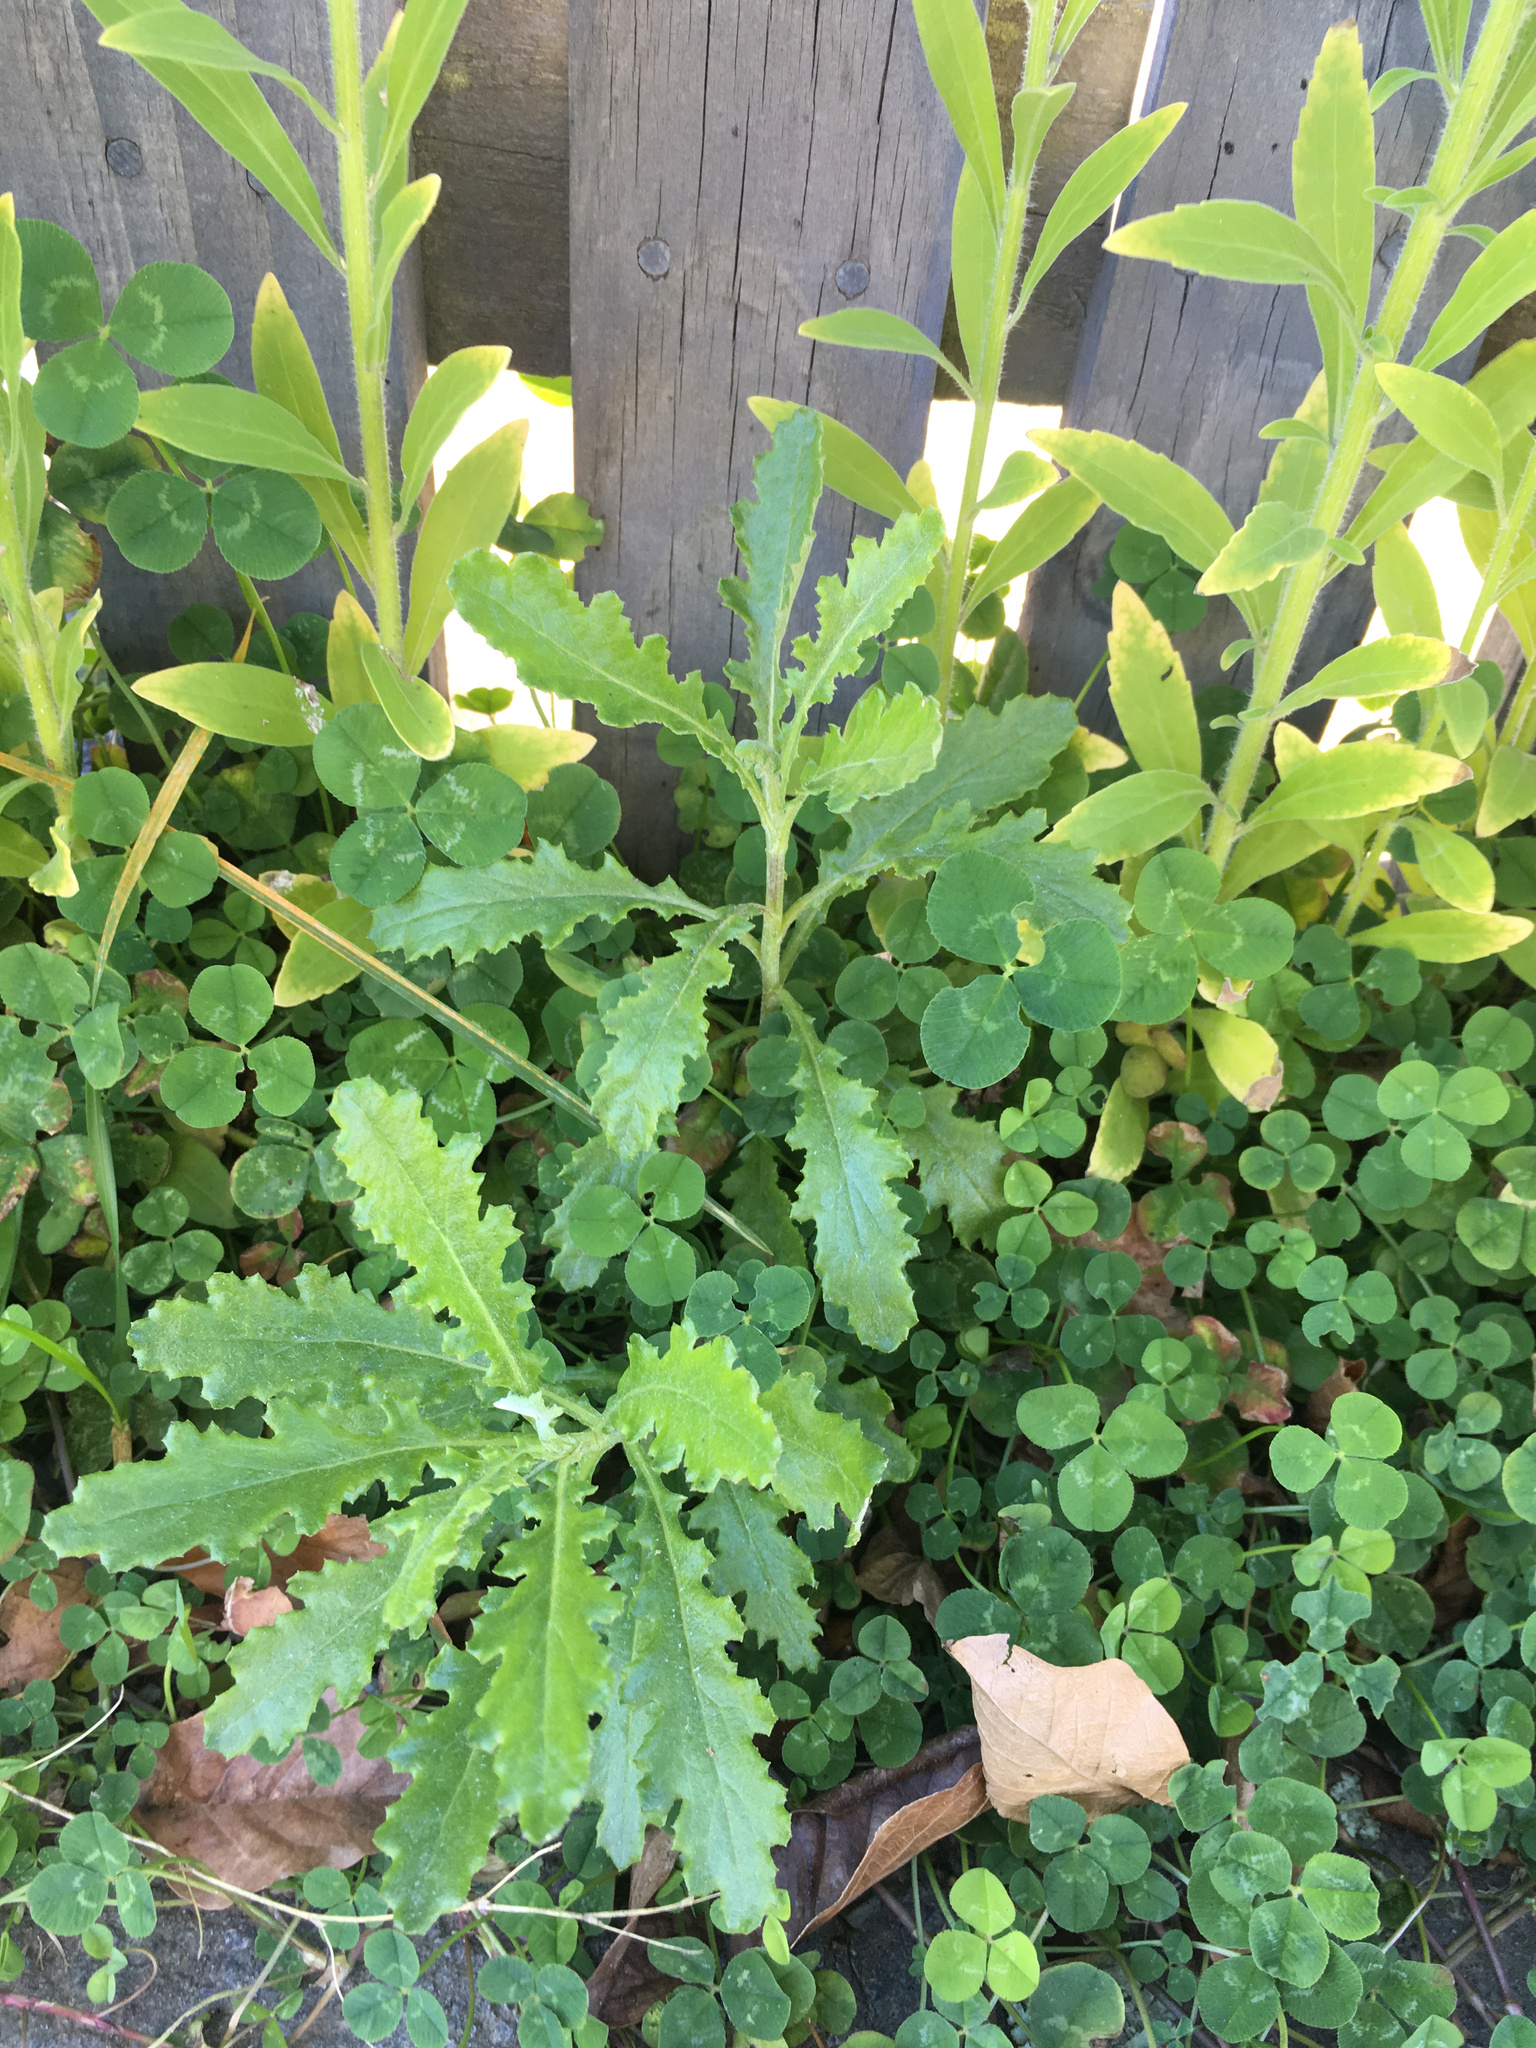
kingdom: Plantae
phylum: Tracheophyta
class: Magnoliopsida
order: Asterales
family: Asteraceae
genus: Senecio
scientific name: Senecio glomeratus
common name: Cutleaf burnweed
